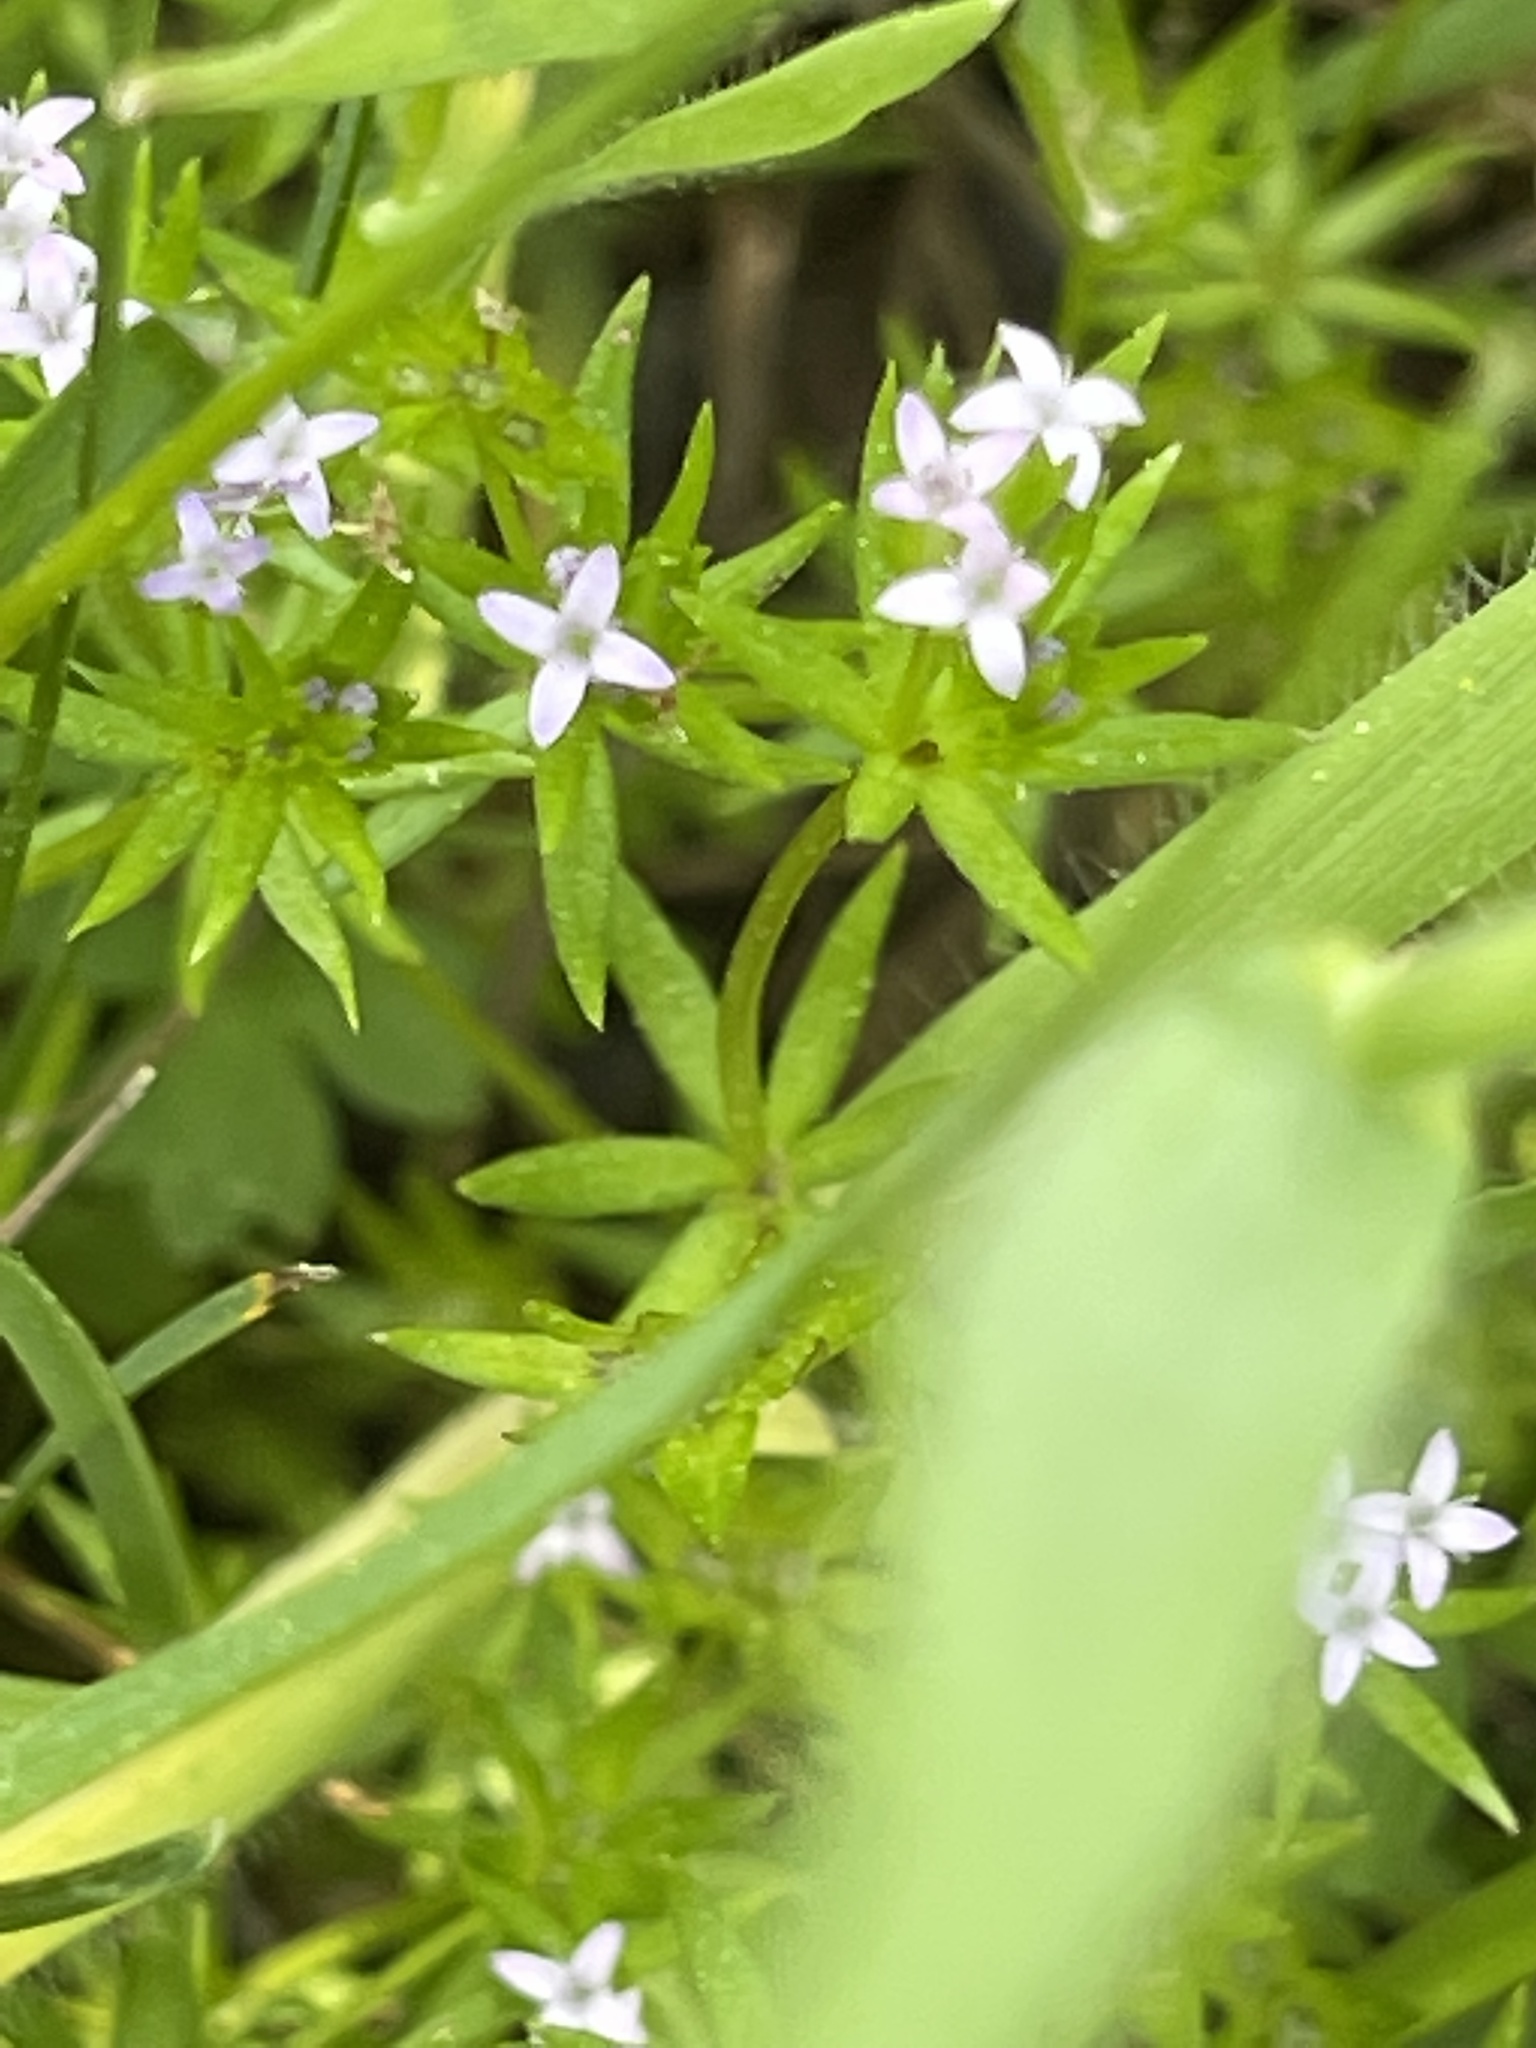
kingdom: Plantae
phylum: Tracheophyta
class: Magnoliopsida
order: Gentianales
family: Rubiaceae
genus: Sherardia
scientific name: Sherardia arvensis
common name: Field madder
